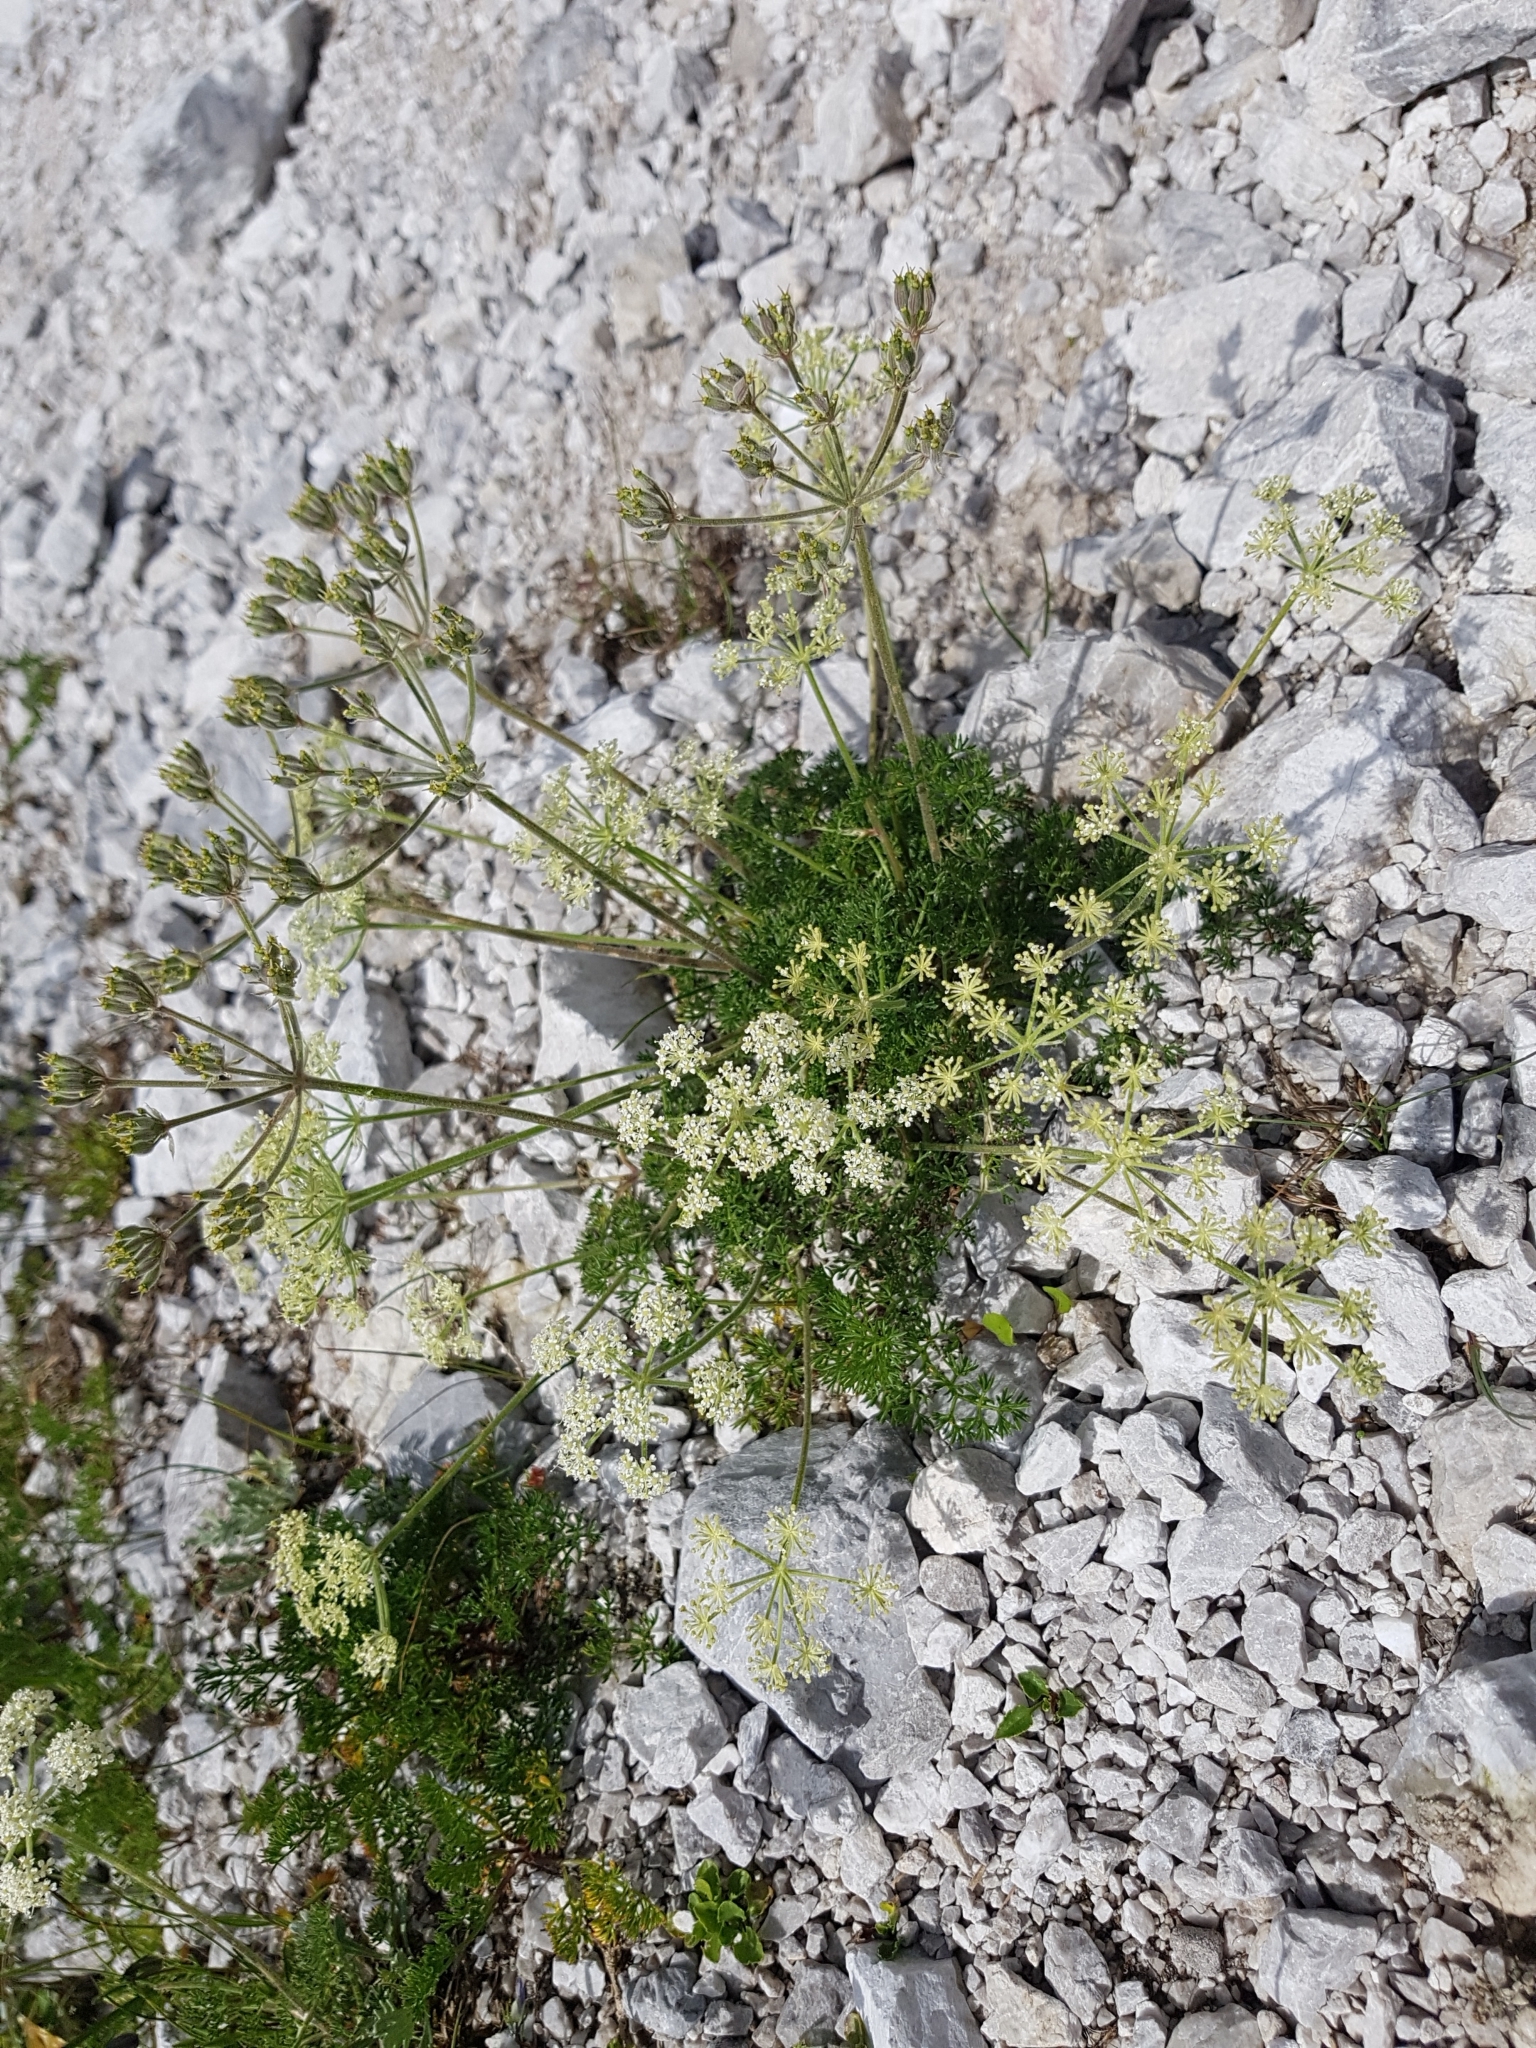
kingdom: Plantae
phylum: Tracheophyta
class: Magnoliopsida
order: Apiales
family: Apiaceae
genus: Athamanta
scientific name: Athamanta cretensis
